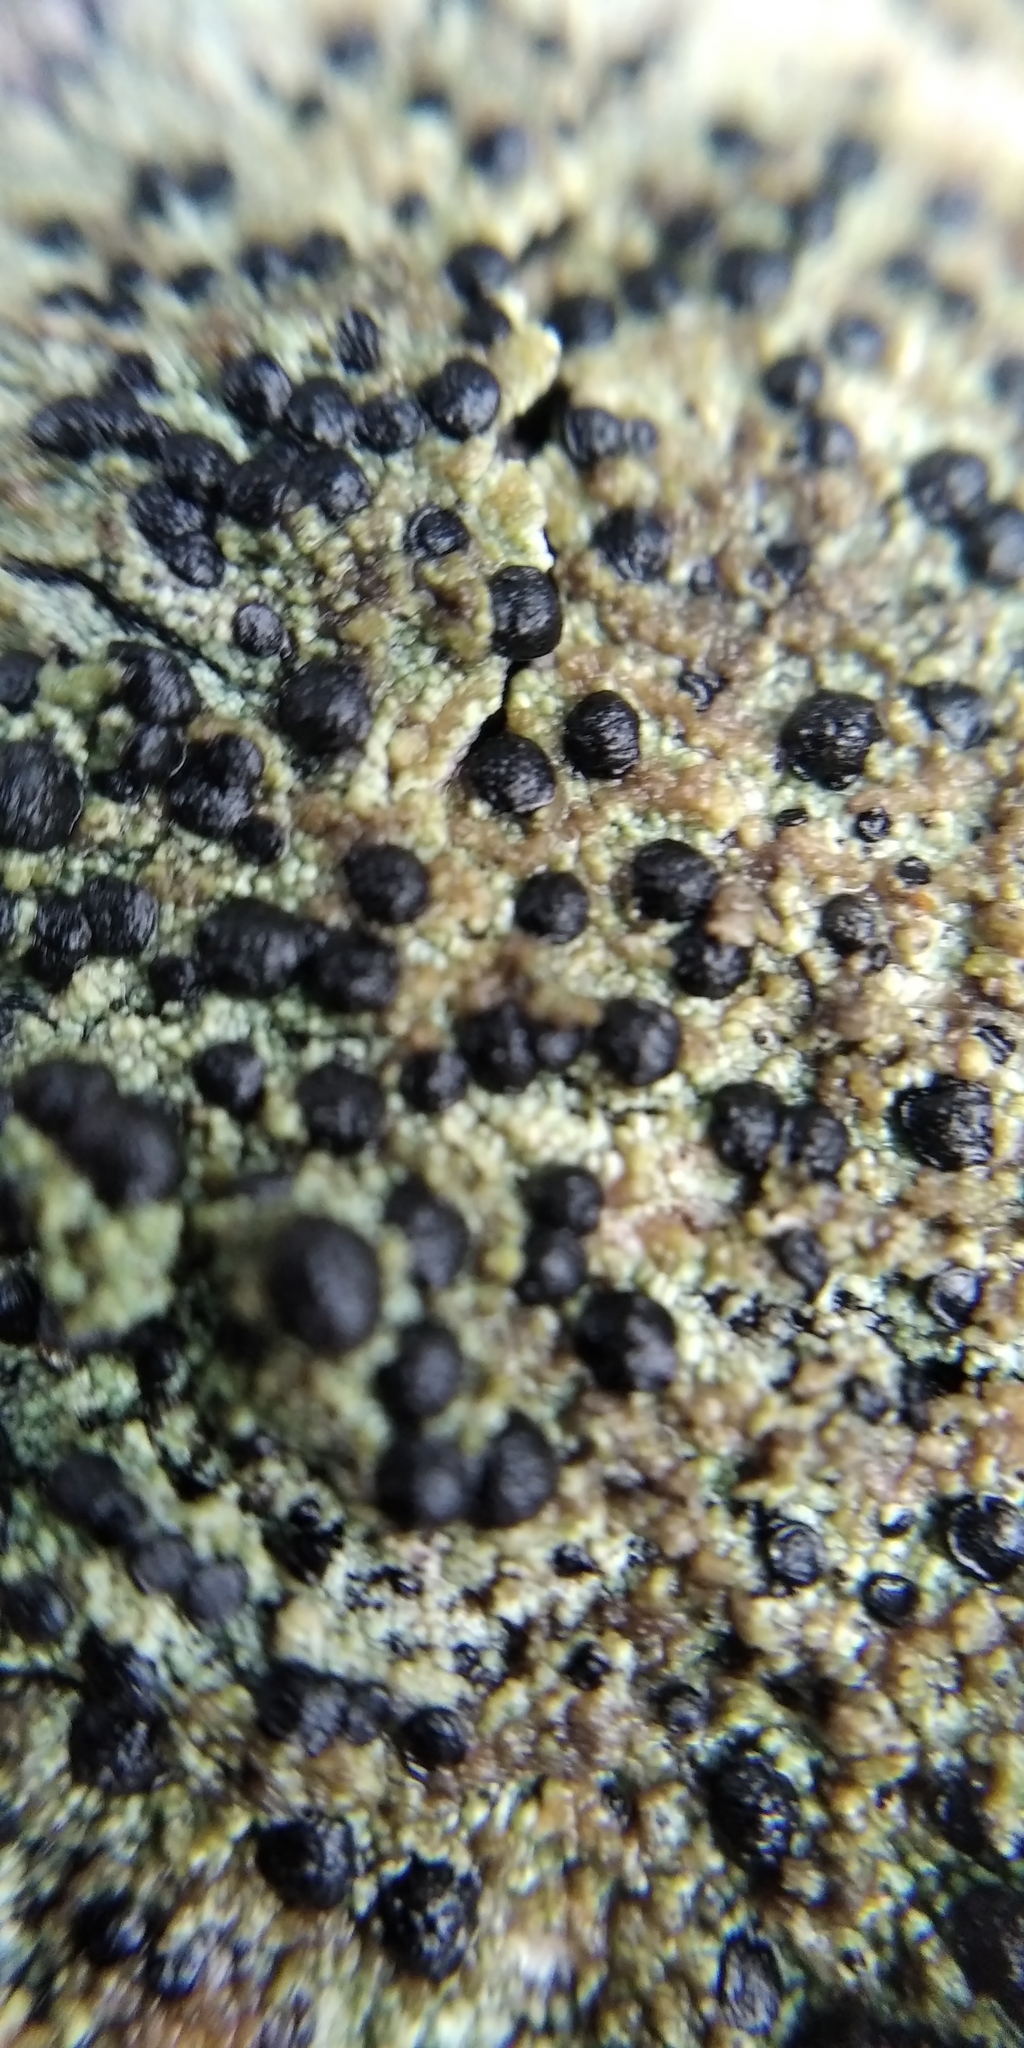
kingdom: Fungi
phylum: Ascomycota
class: Lecanoromycetes
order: Lecanorales
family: Lecanoraceae
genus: Lecidella
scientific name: Lecidella elaeochroma
